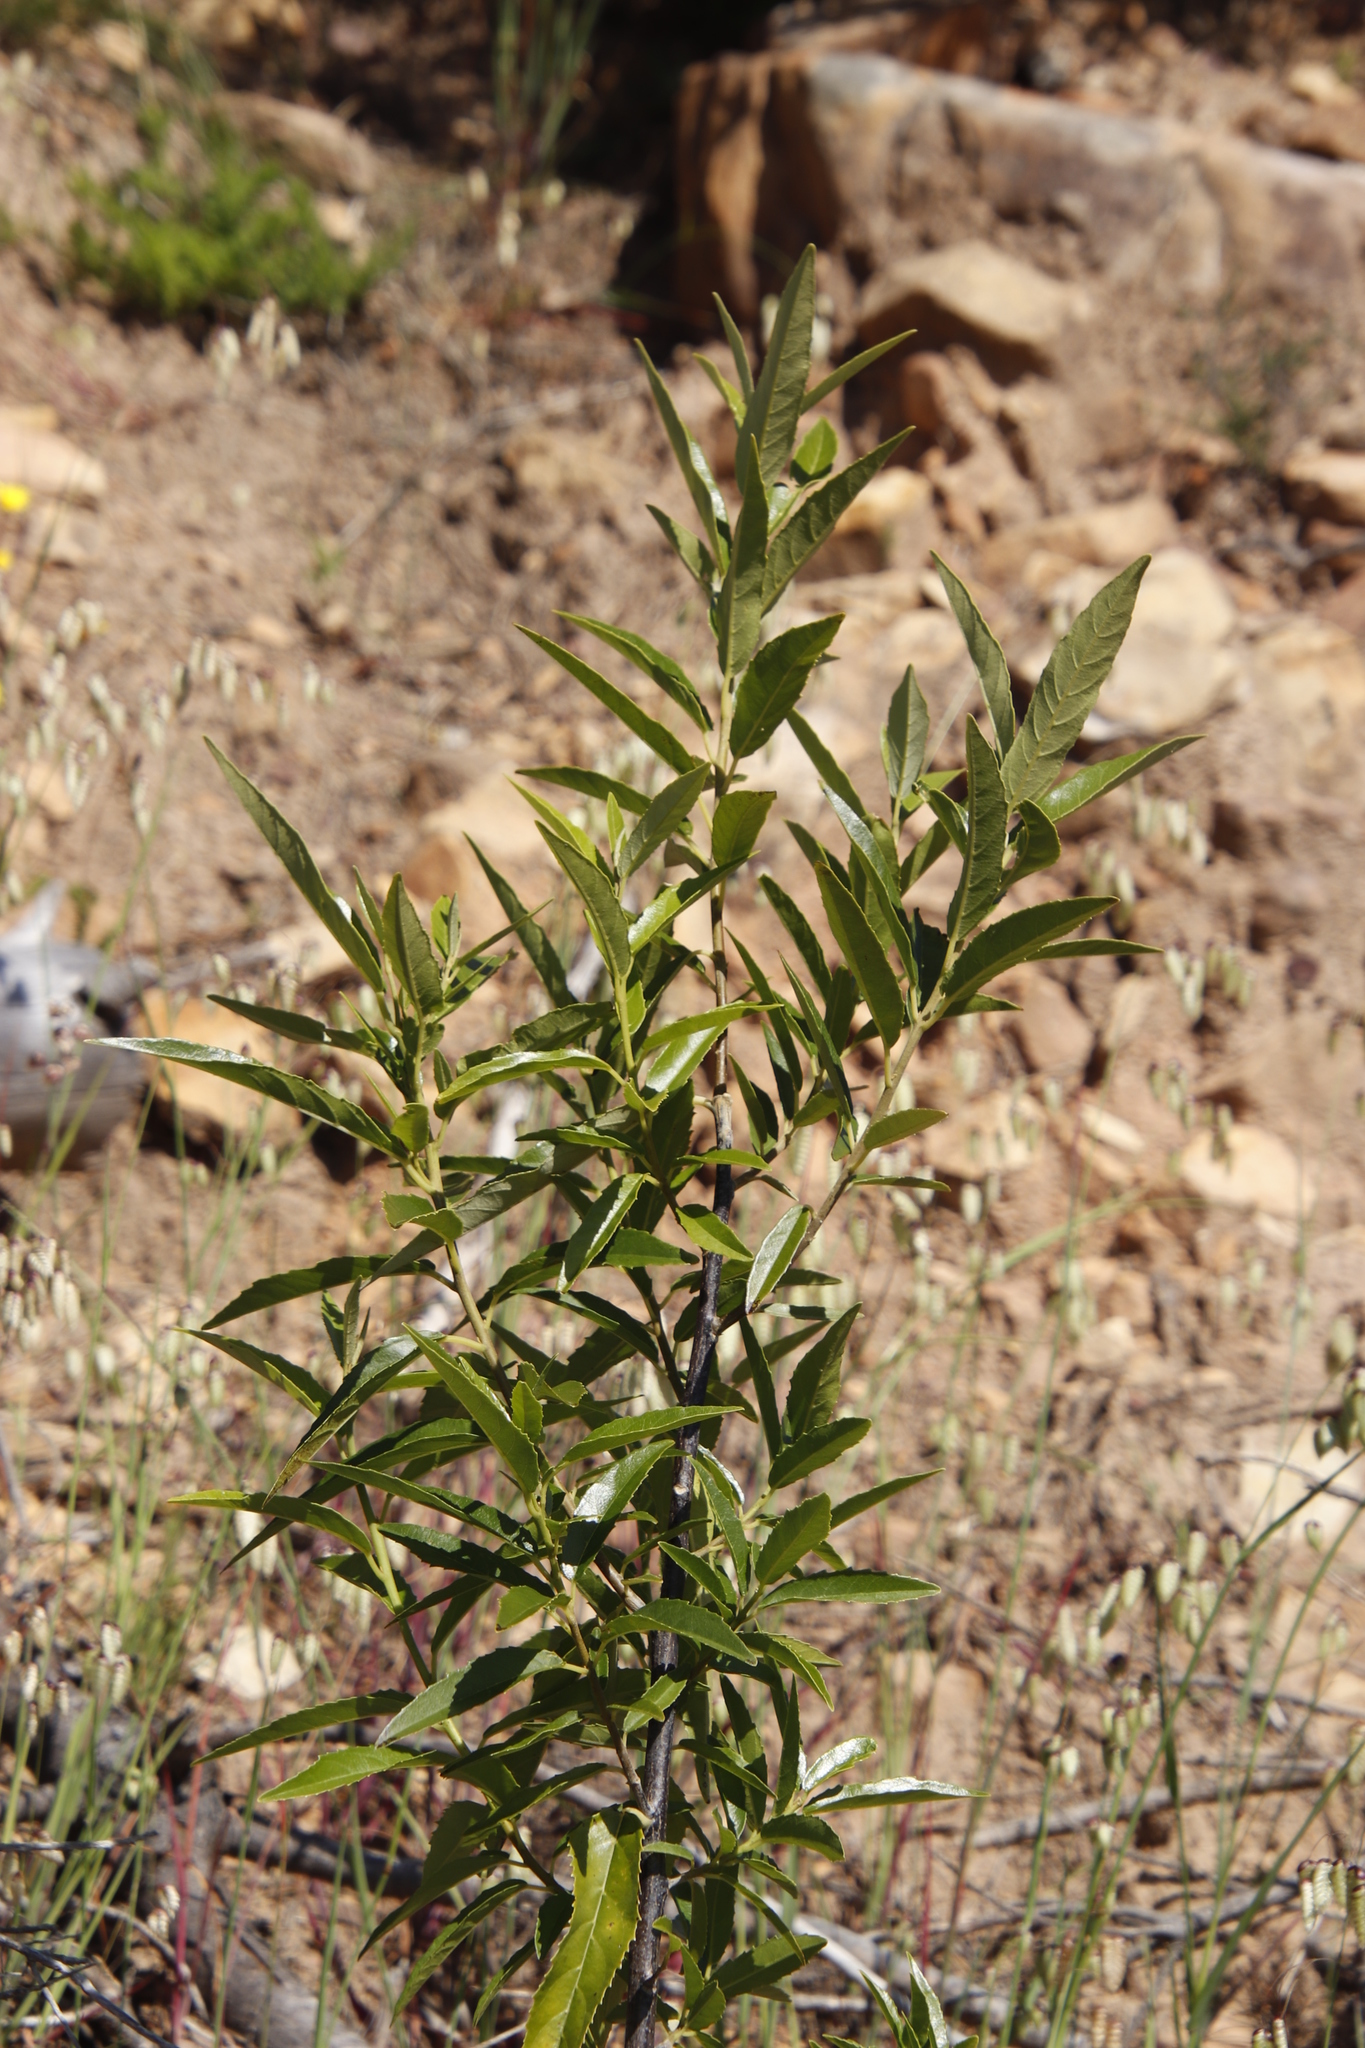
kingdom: Plantae
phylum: Tracheophyta
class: Magnoliopsida
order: Malpighiales
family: Achariaceae
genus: Kiggelaria
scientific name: Kiggelaria africana
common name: Wild peach
